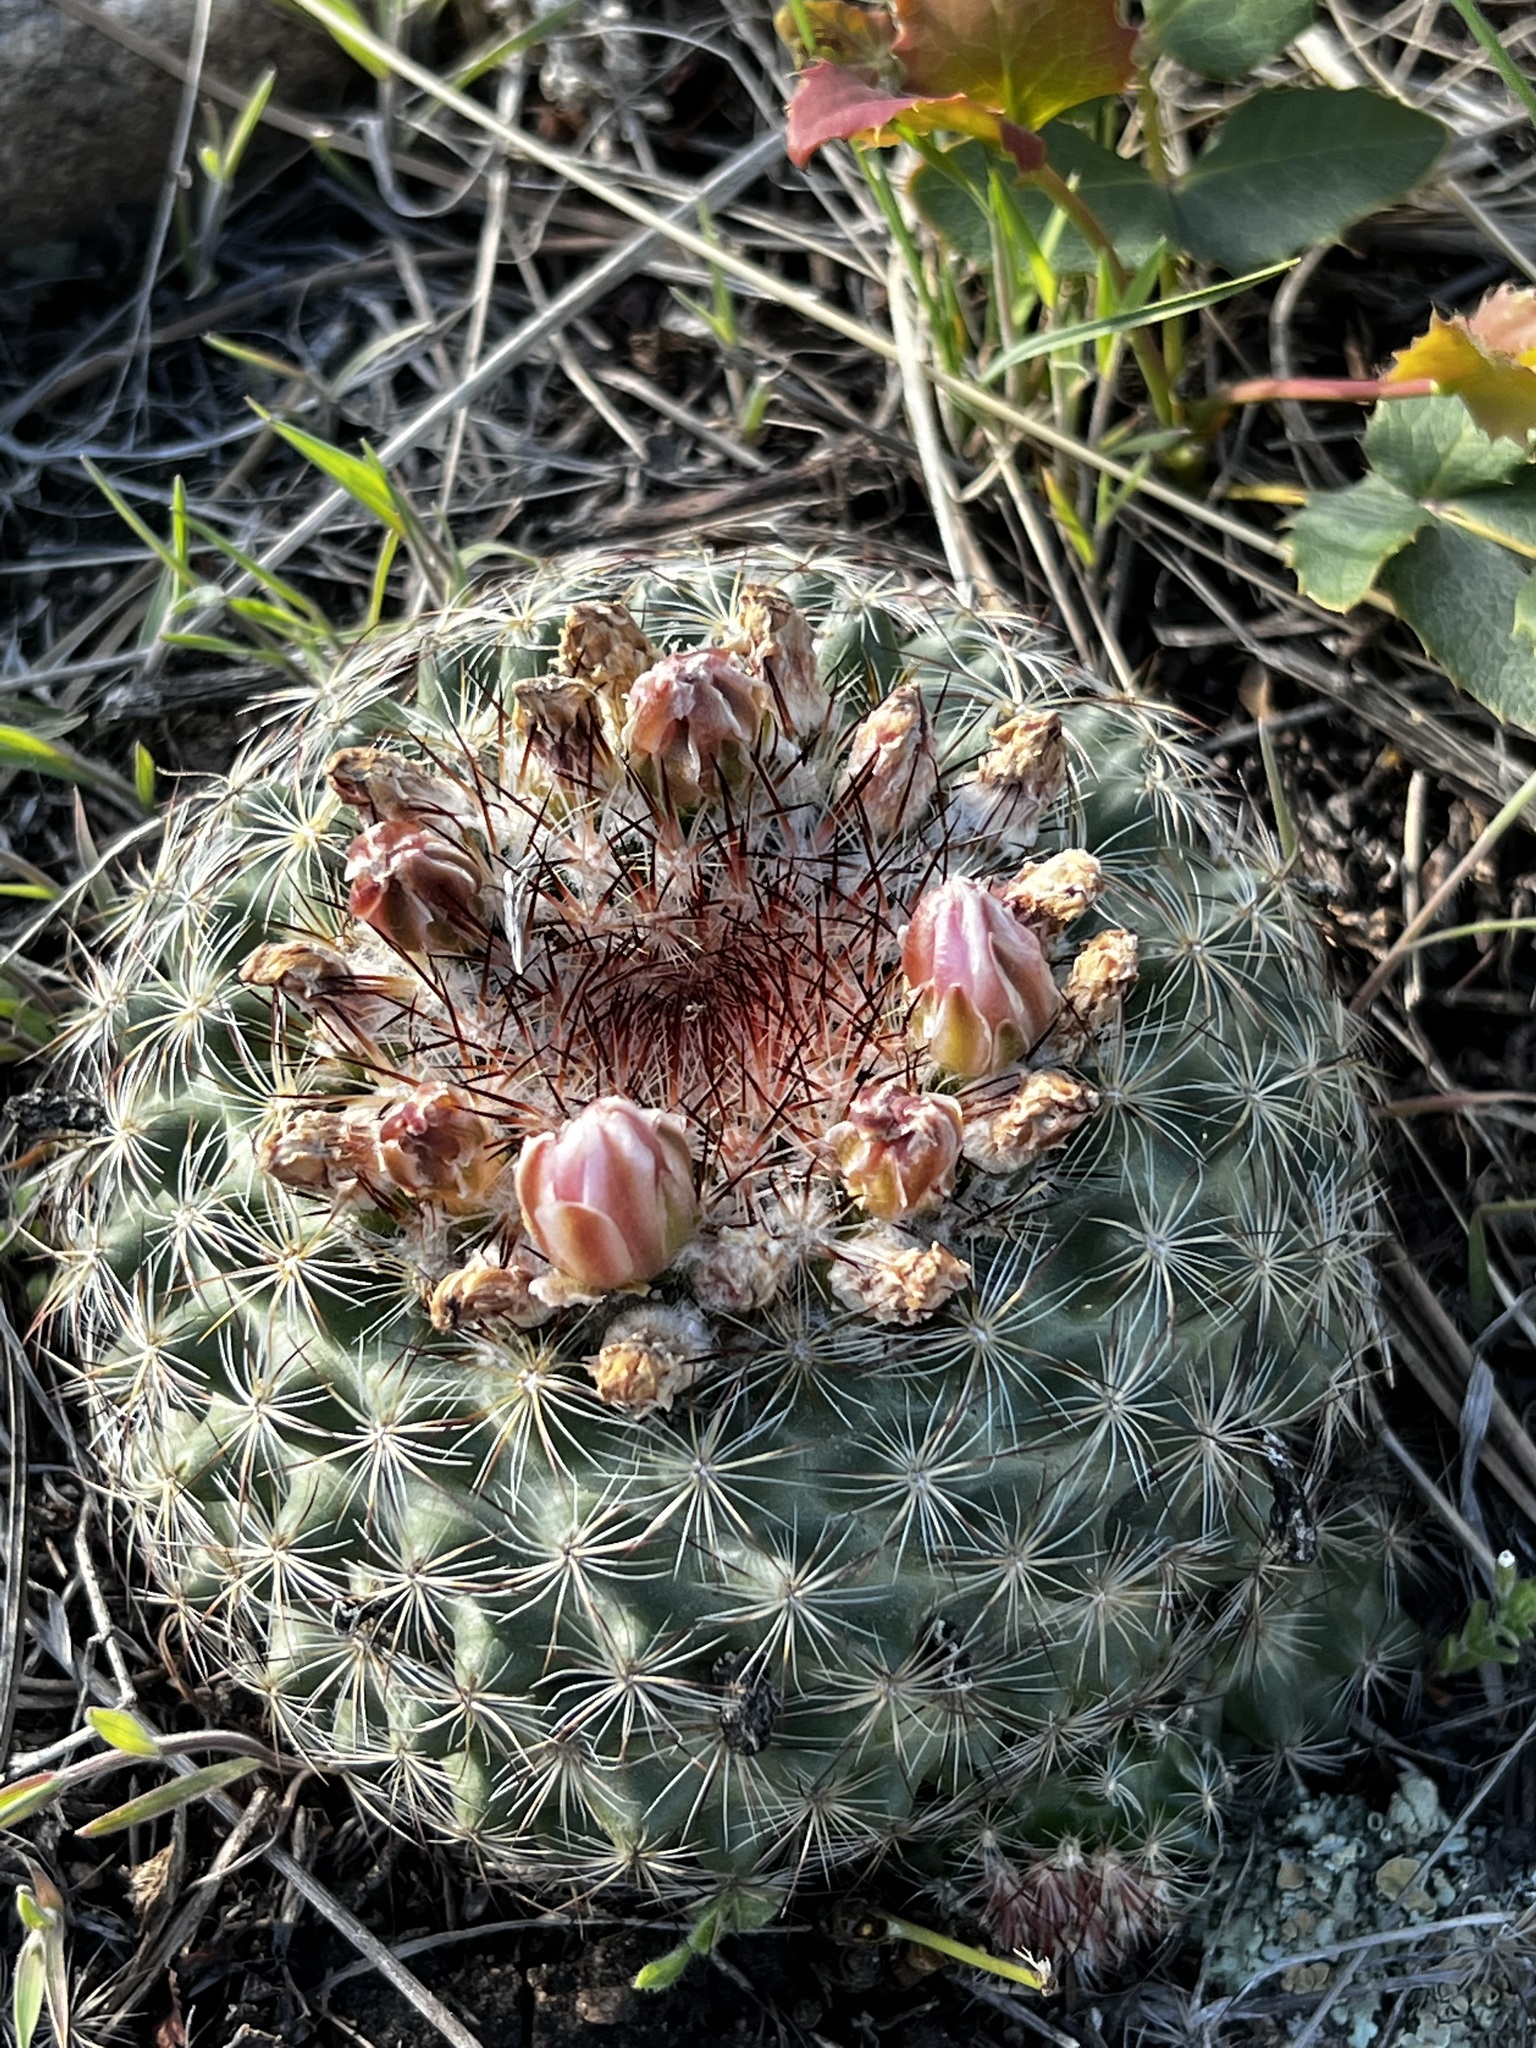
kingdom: Plantae
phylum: Tracheophyta
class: Magnoliopsida
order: Caryophyllales
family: Cactaceae
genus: Pediocactus
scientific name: Pediocactus simpsonii
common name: Simpson's hedgehog cactus
